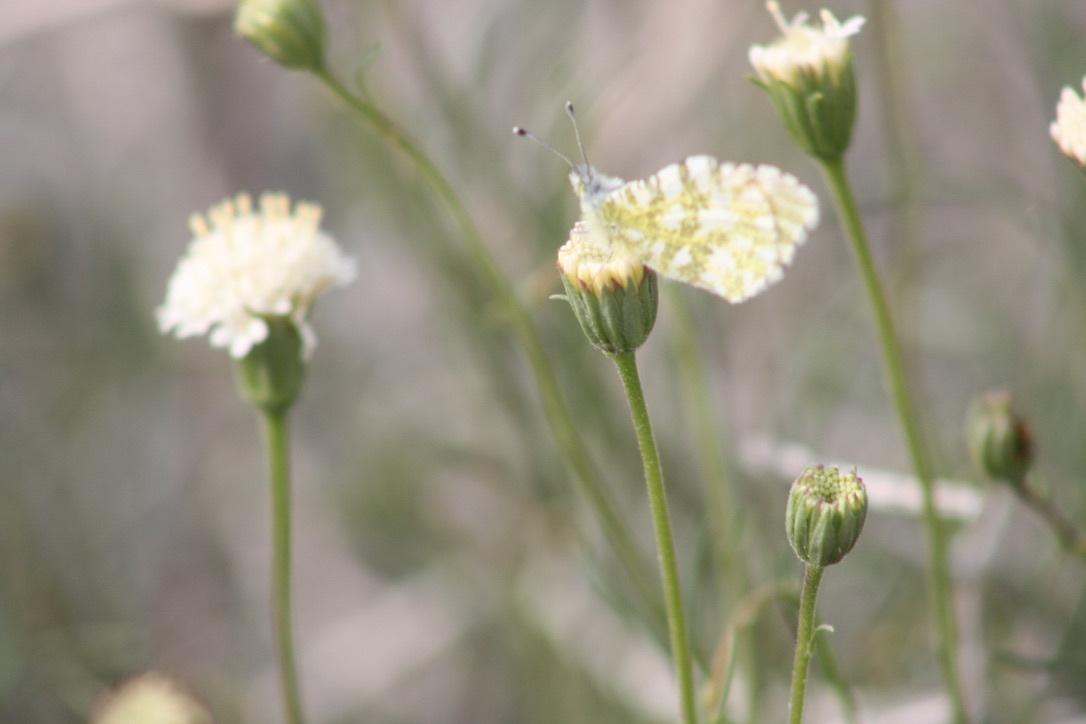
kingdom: Animalia
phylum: Arthropoda
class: Insecta
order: Lepidoptera
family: Pieridae
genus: Euchloe
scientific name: Euchloe hyantis
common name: California marble
